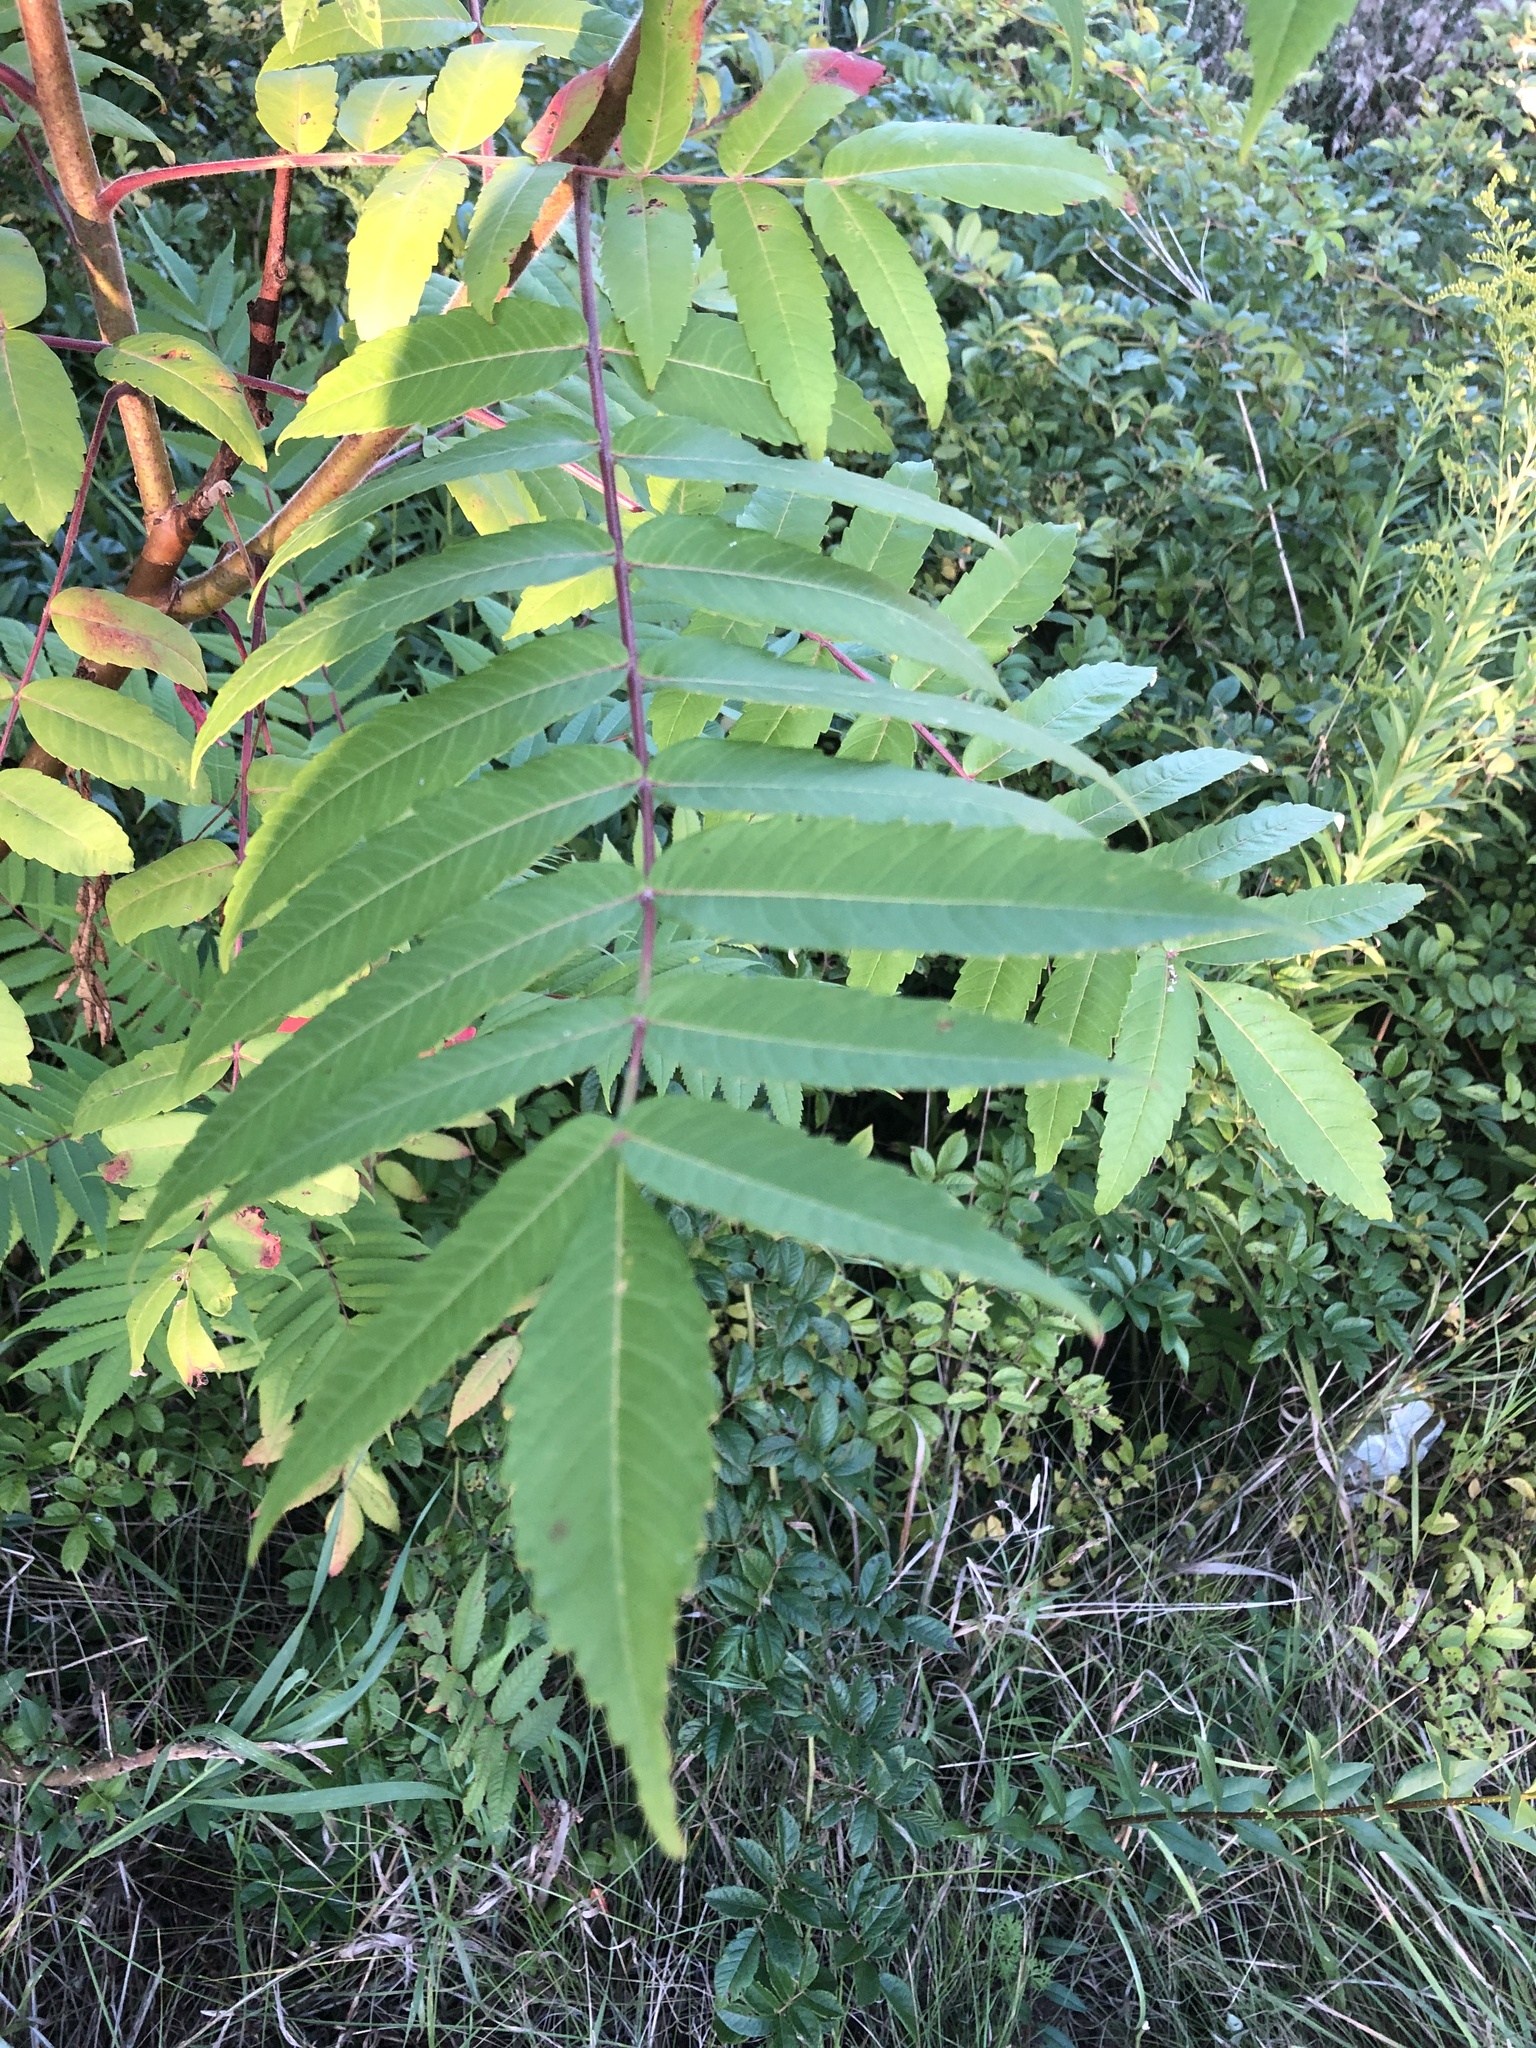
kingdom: Plantae
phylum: Tracheophyta
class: Magnoliopsida
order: Sapindales
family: Anacardiaceae
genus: Rhus
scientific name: Rhus typhina
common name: Staghorn sumac
